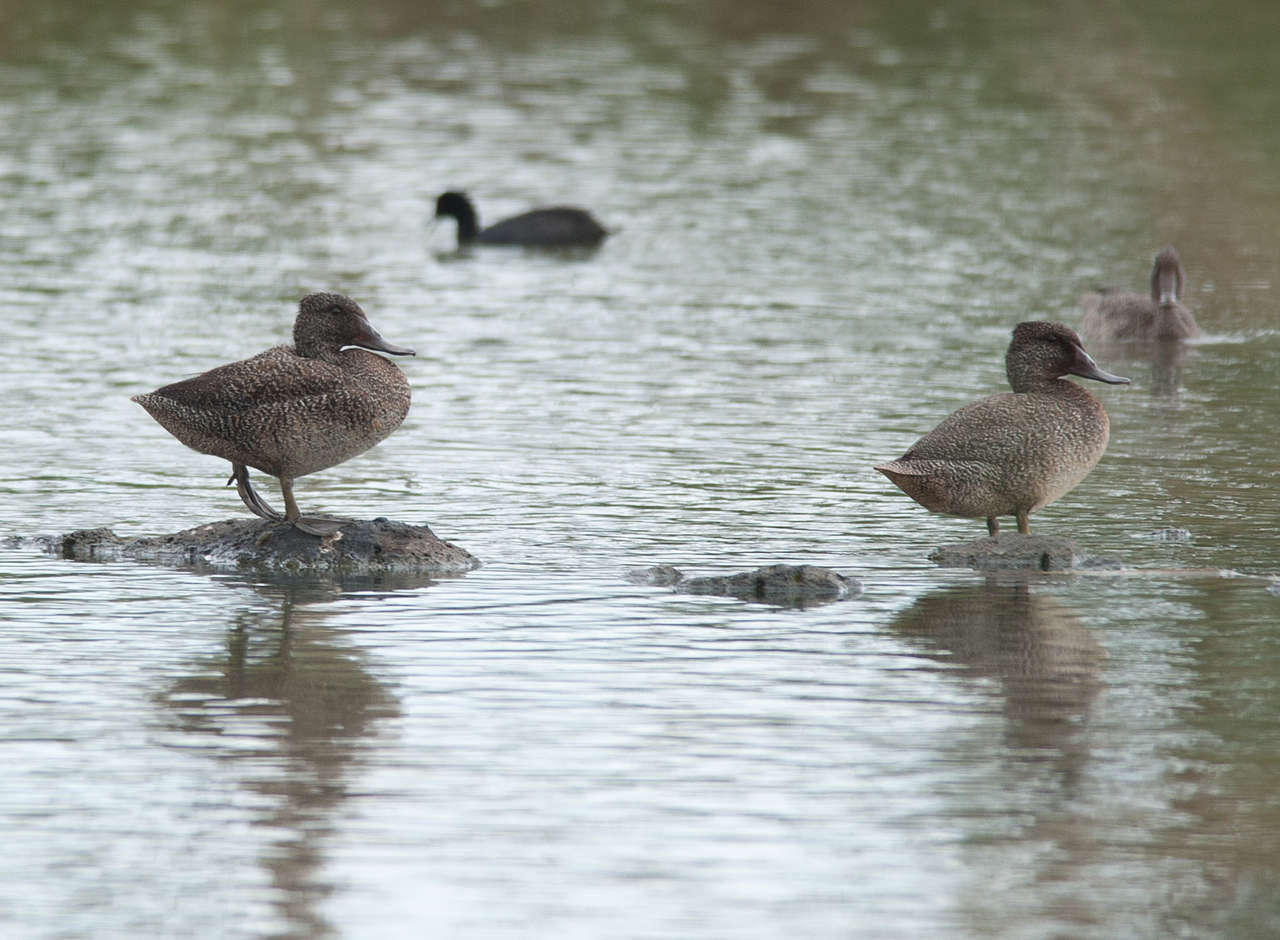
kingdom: Animalia
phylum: Chordata
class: Aves
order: Anseriformes
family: Anatidae
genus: Stictonetta
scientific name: Stictonetta naevosa
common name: Freckled duck
